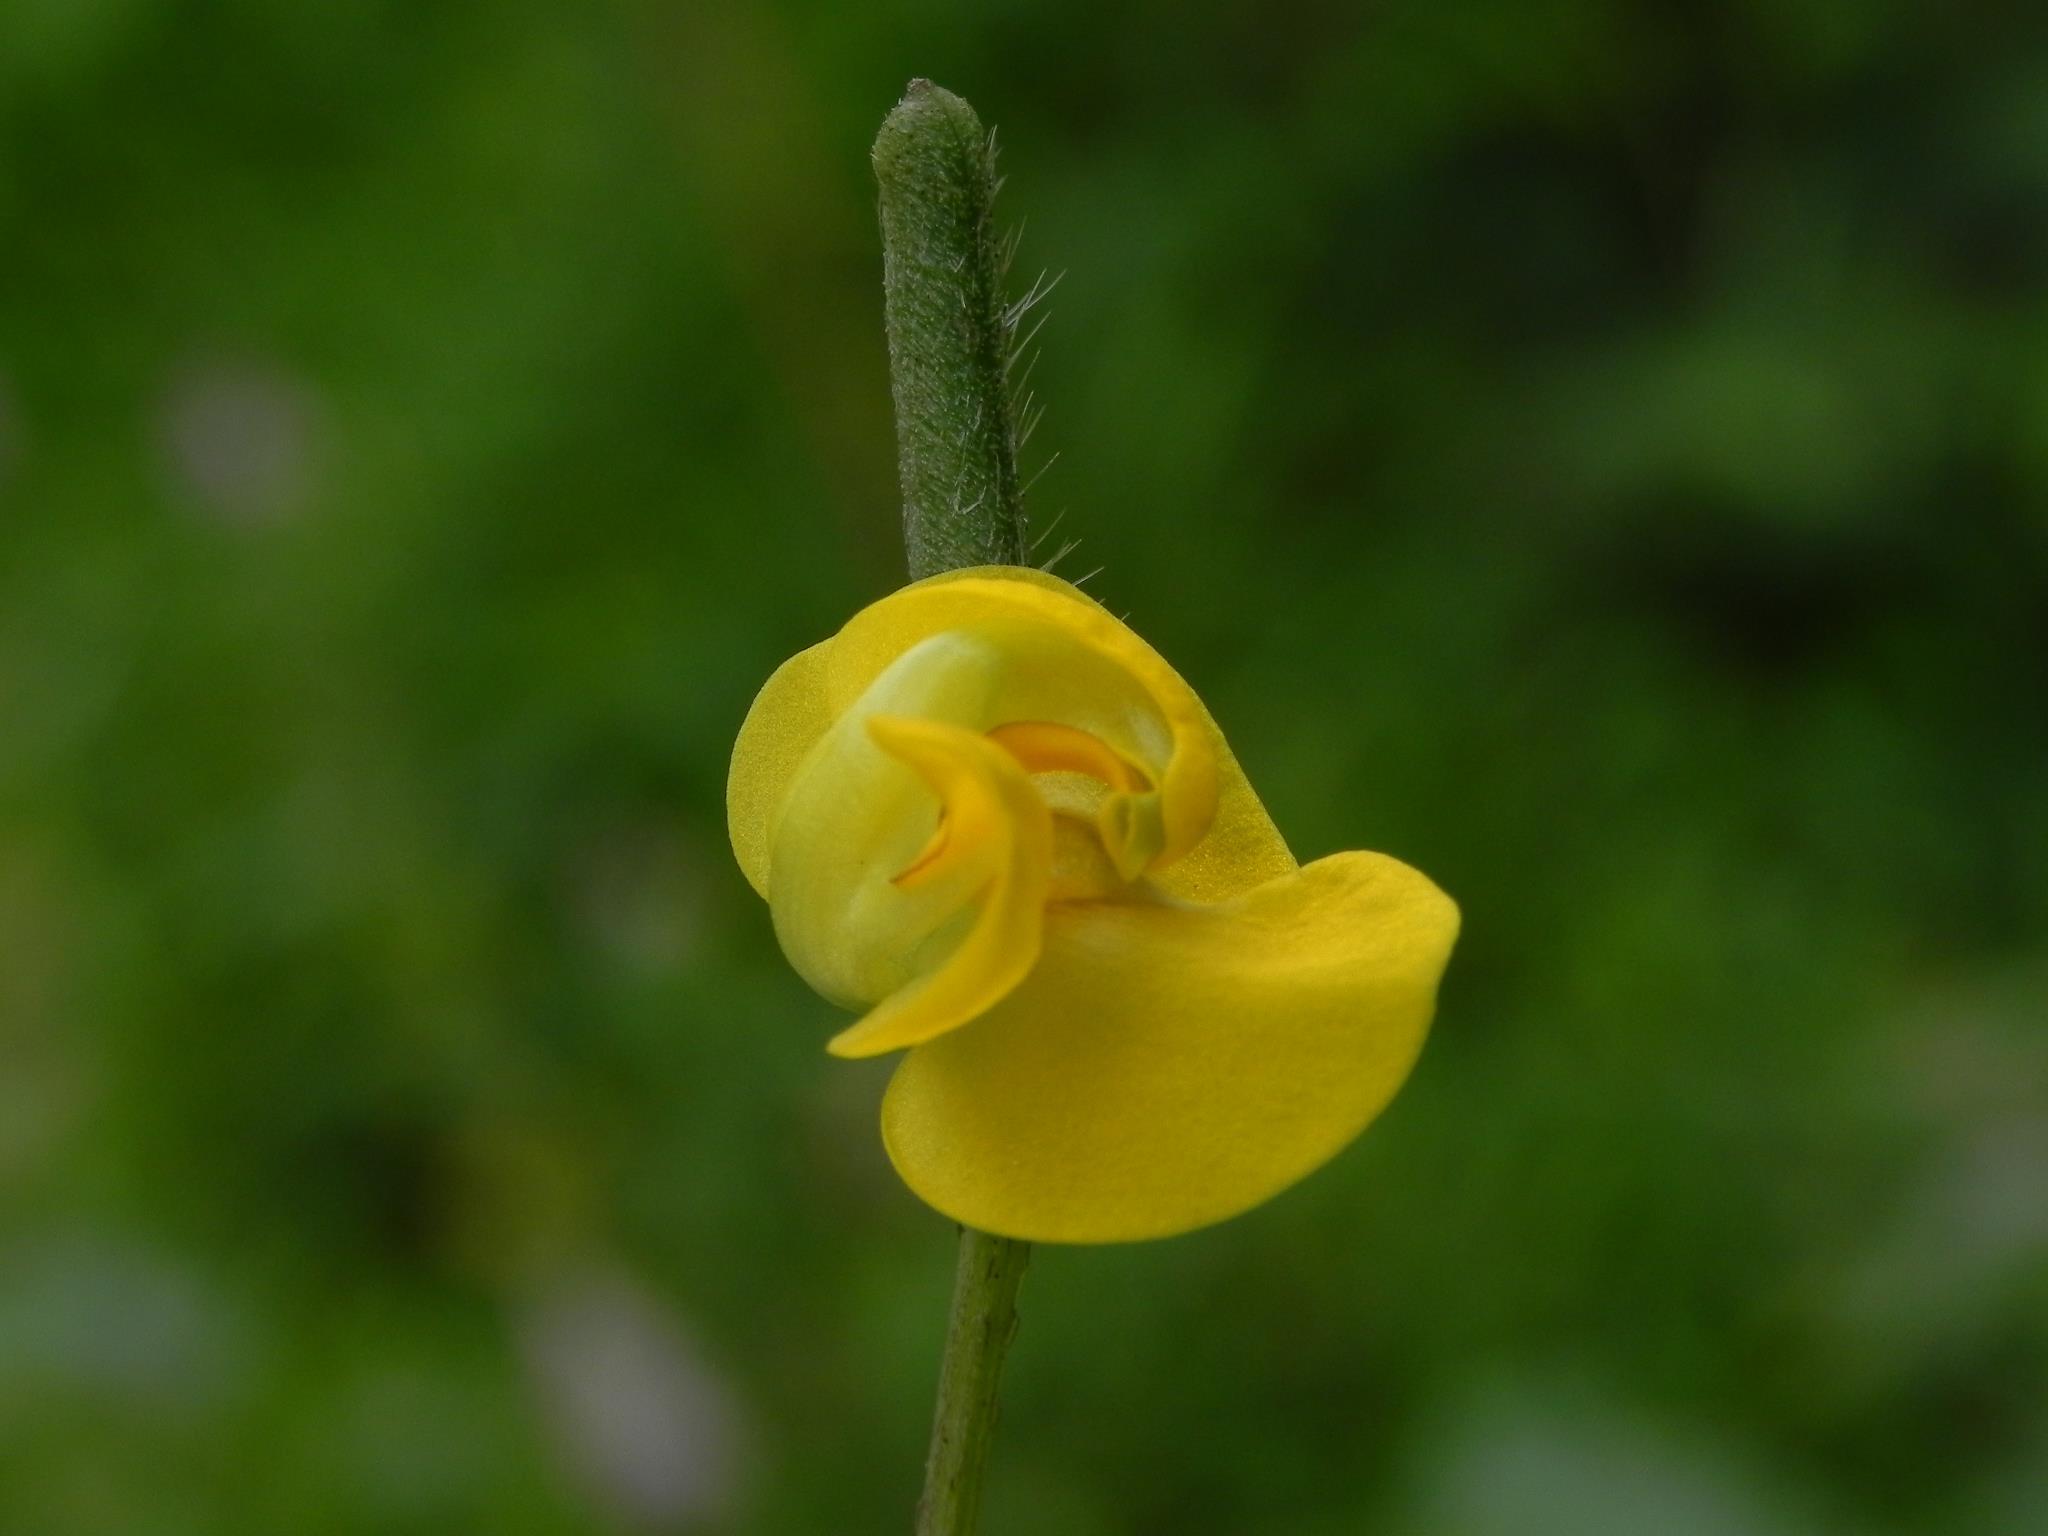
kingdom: Plantae
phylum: Tracheophyta
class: Magnoliopsida
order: Fabales
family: Fabaceae
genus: Vigna
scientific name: Vigna radiata
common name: Mung-bean
